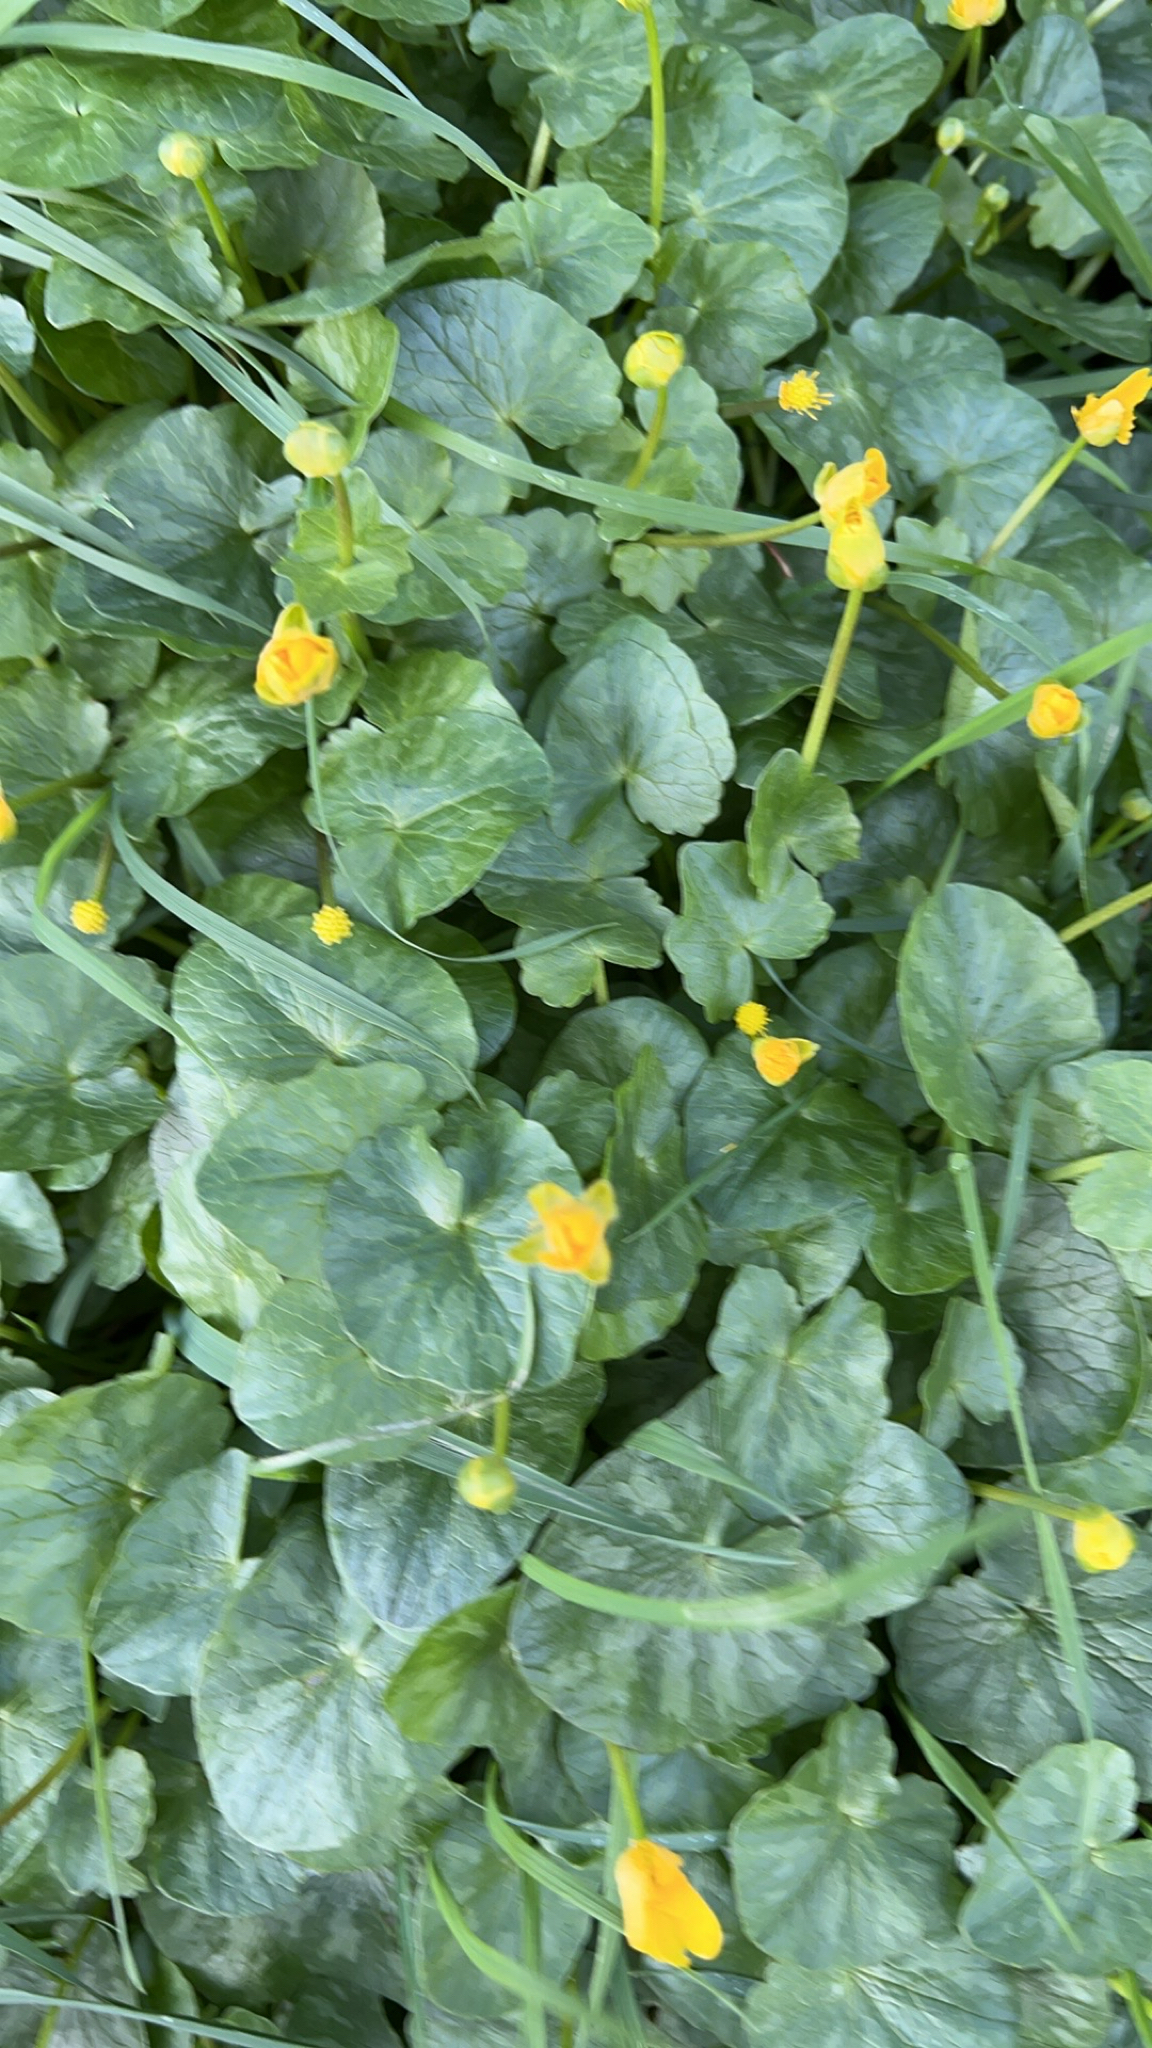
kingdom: Plantae
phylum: Tracheophyta
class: Magnoliopsida
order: Ranunculales
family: Ranunculaceae
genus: Ficaria
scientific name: Ficaria verna
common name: Lesser celandine
